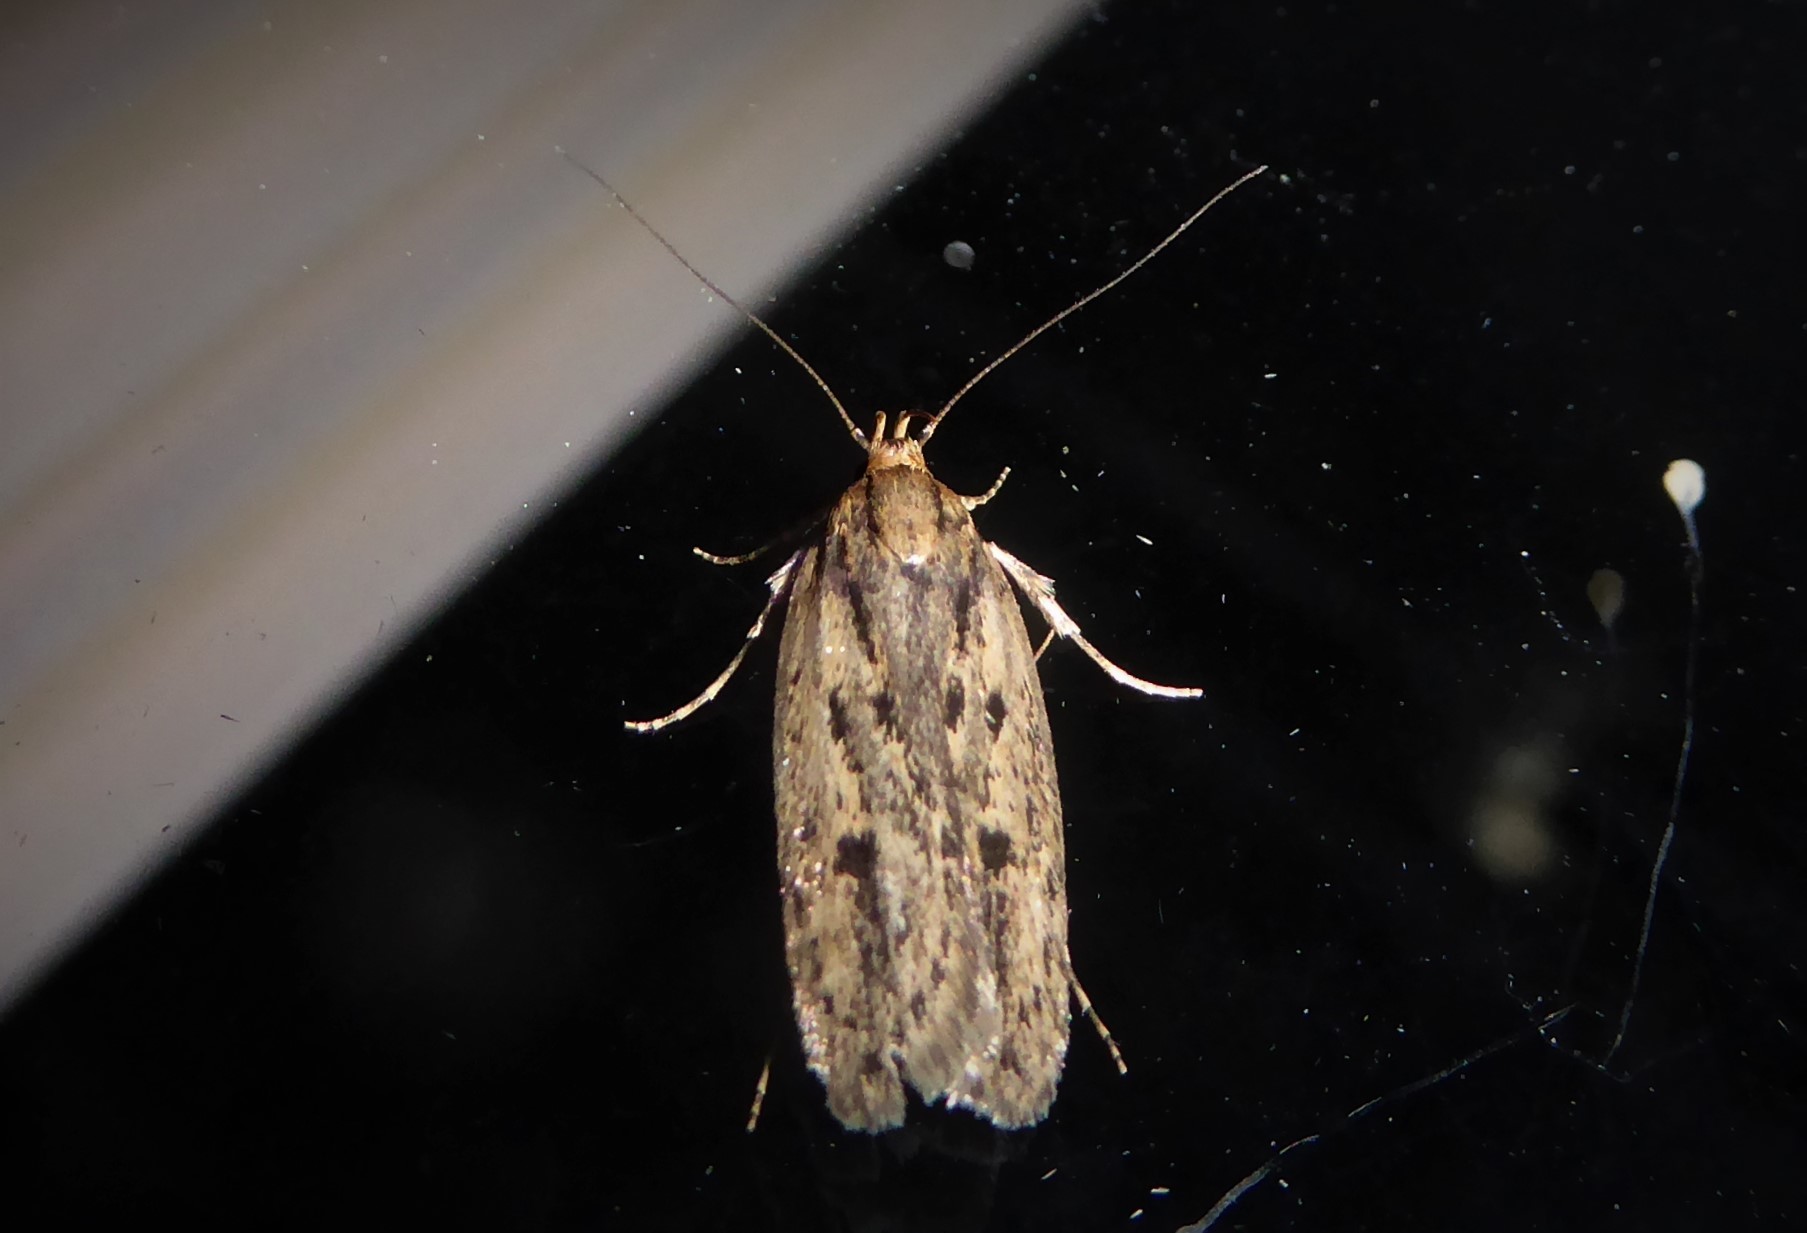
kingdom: Animalia
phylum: Arthropoda
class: Insecta
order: Lepidoptera
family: Oecophoridae
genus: Hofmannophila
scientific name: Hofmannophila pseudospretella
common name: Brown house moth
